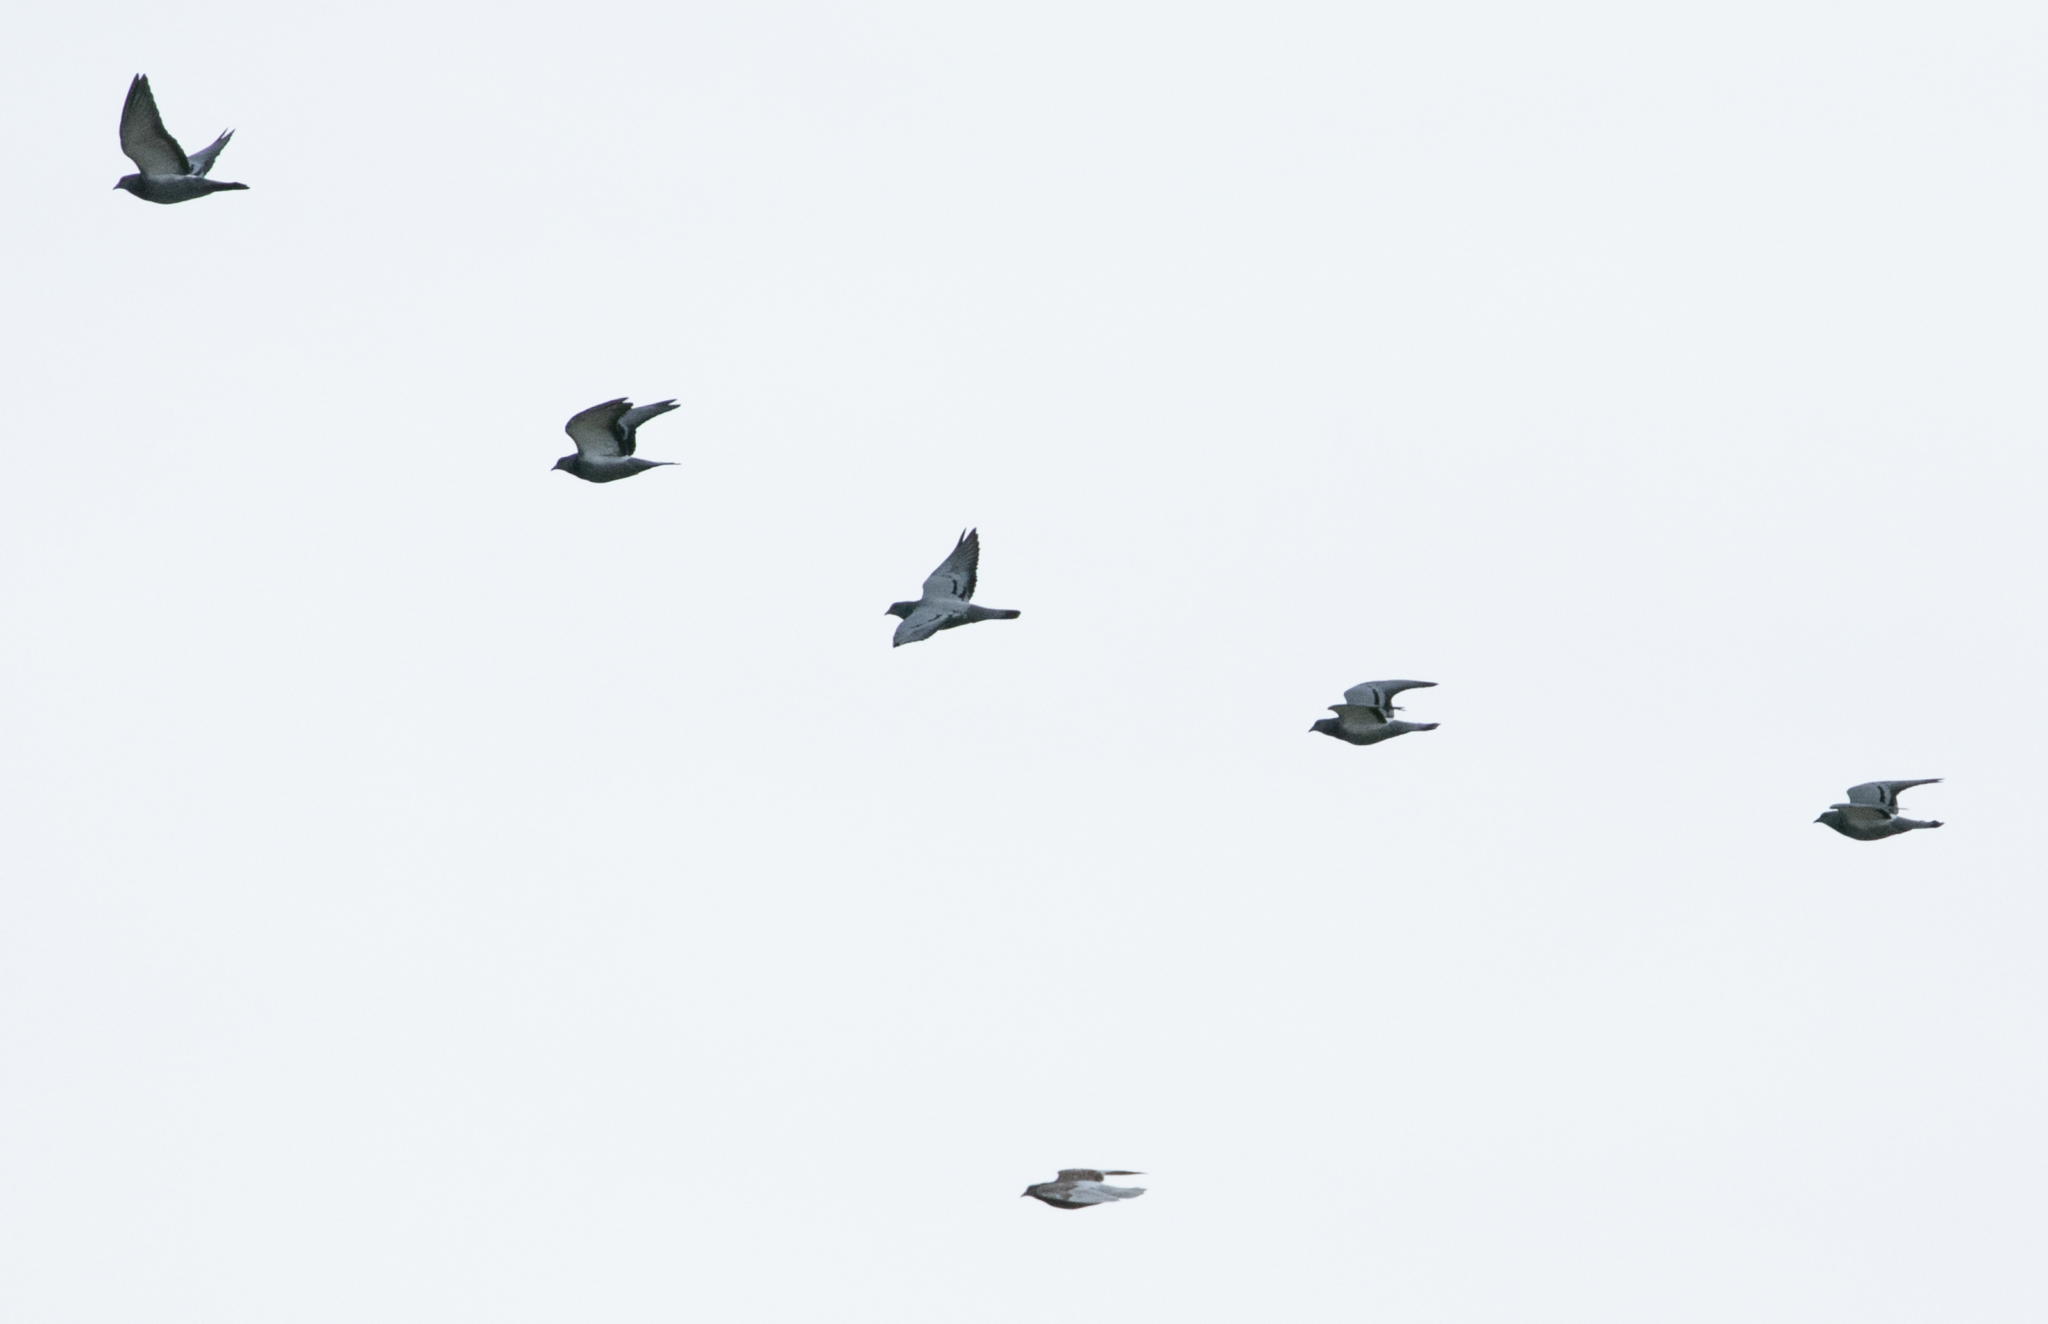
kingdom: Animalia
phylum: Chordata
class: Aves
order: Columbiformes
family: Columbidae
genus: Columba
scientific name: Columba livia
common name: Rock pigeon
